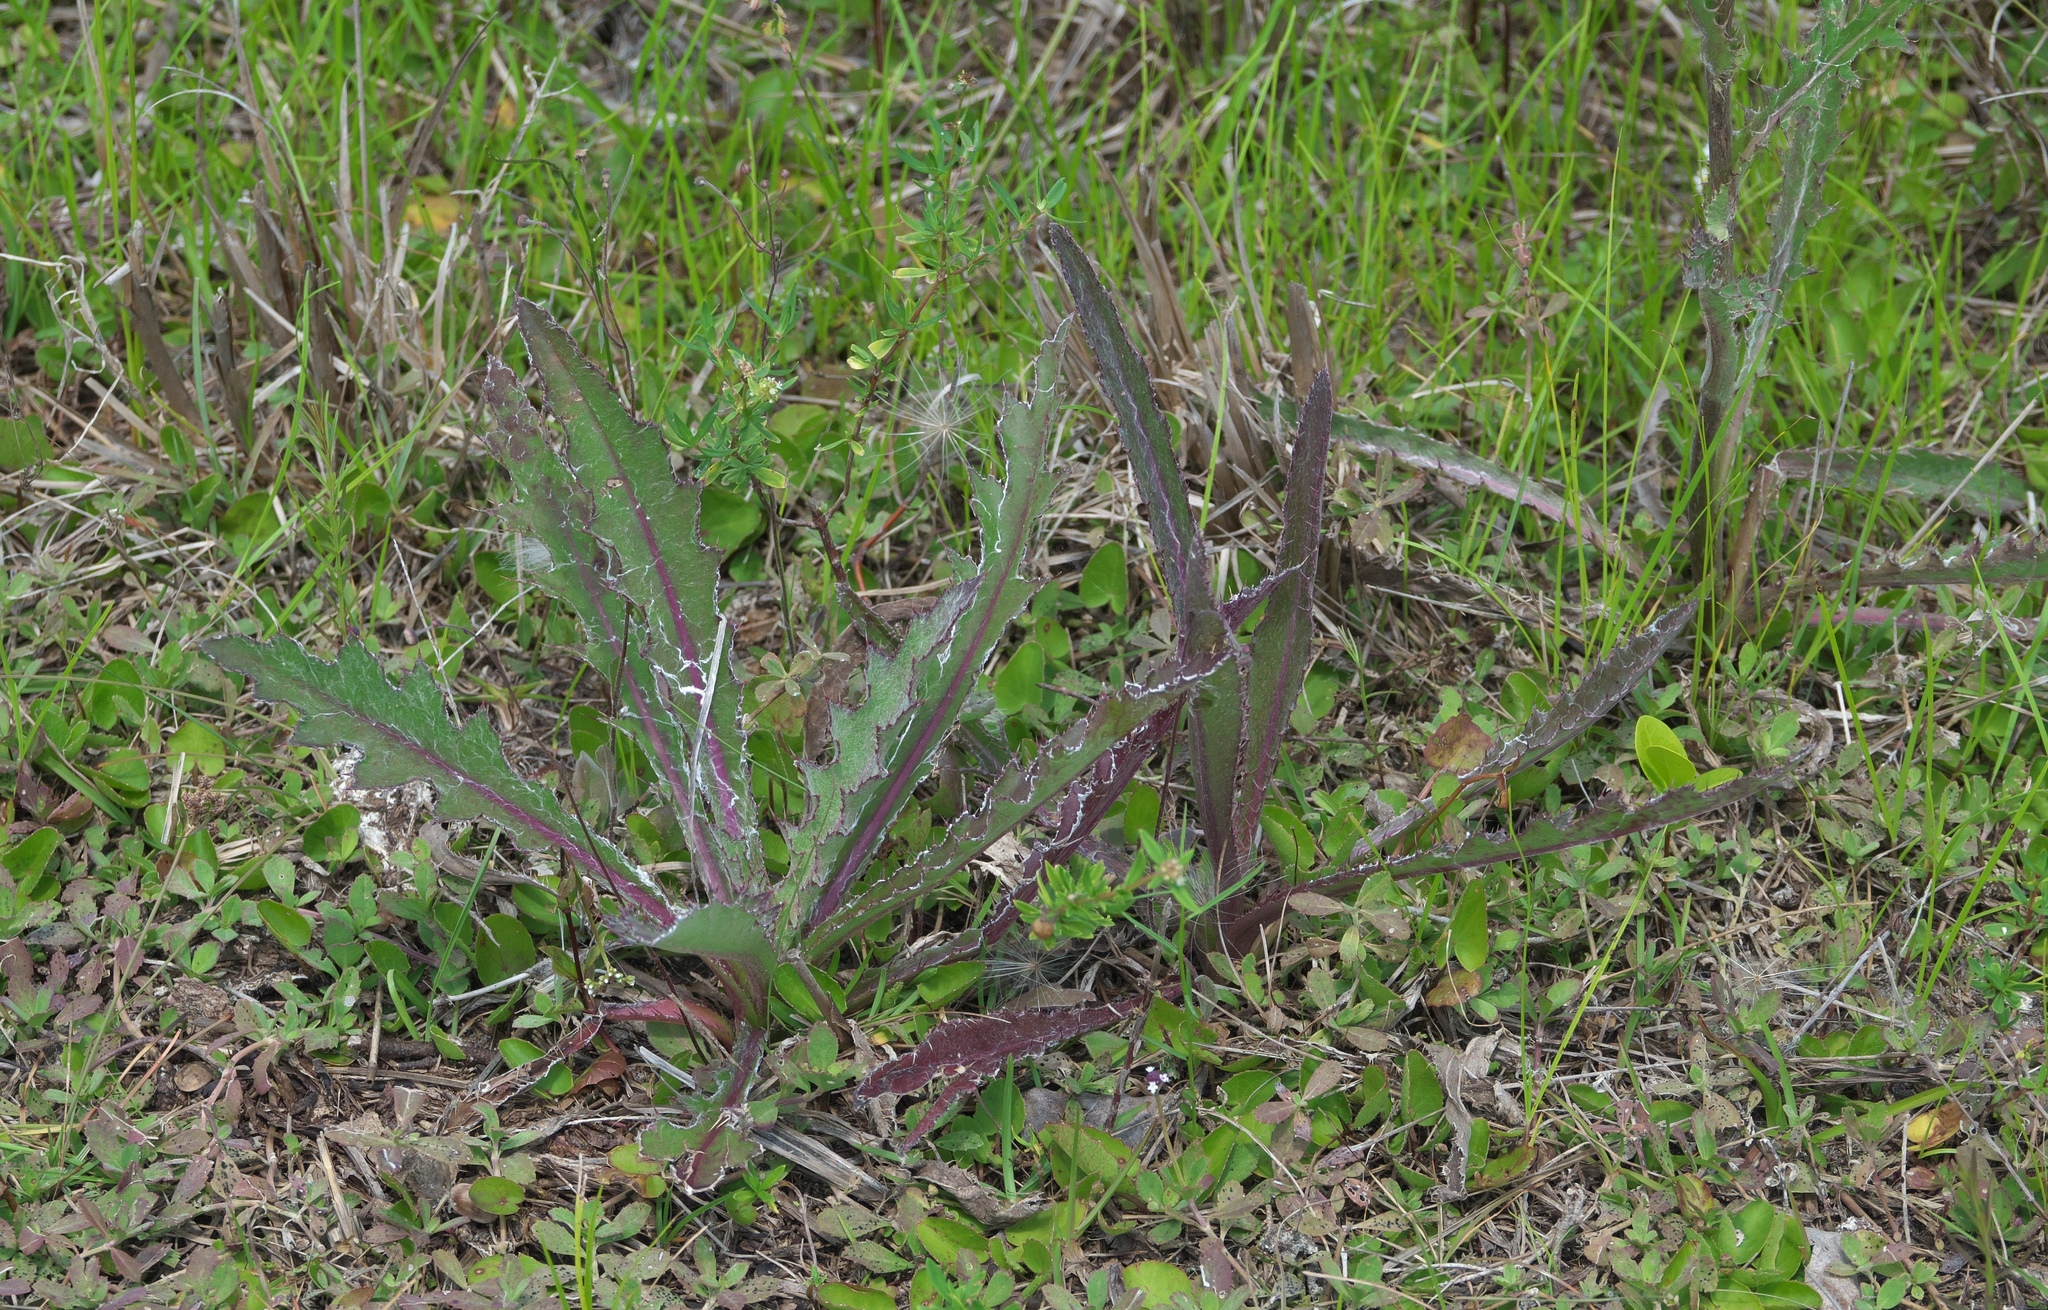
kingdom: Plantae
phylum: Tracheophyta
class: Magnoliopsida
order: Asterales
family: Asteraceae
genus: Cirsium
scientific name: Cirsium horridulum
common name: Bristly thistle
